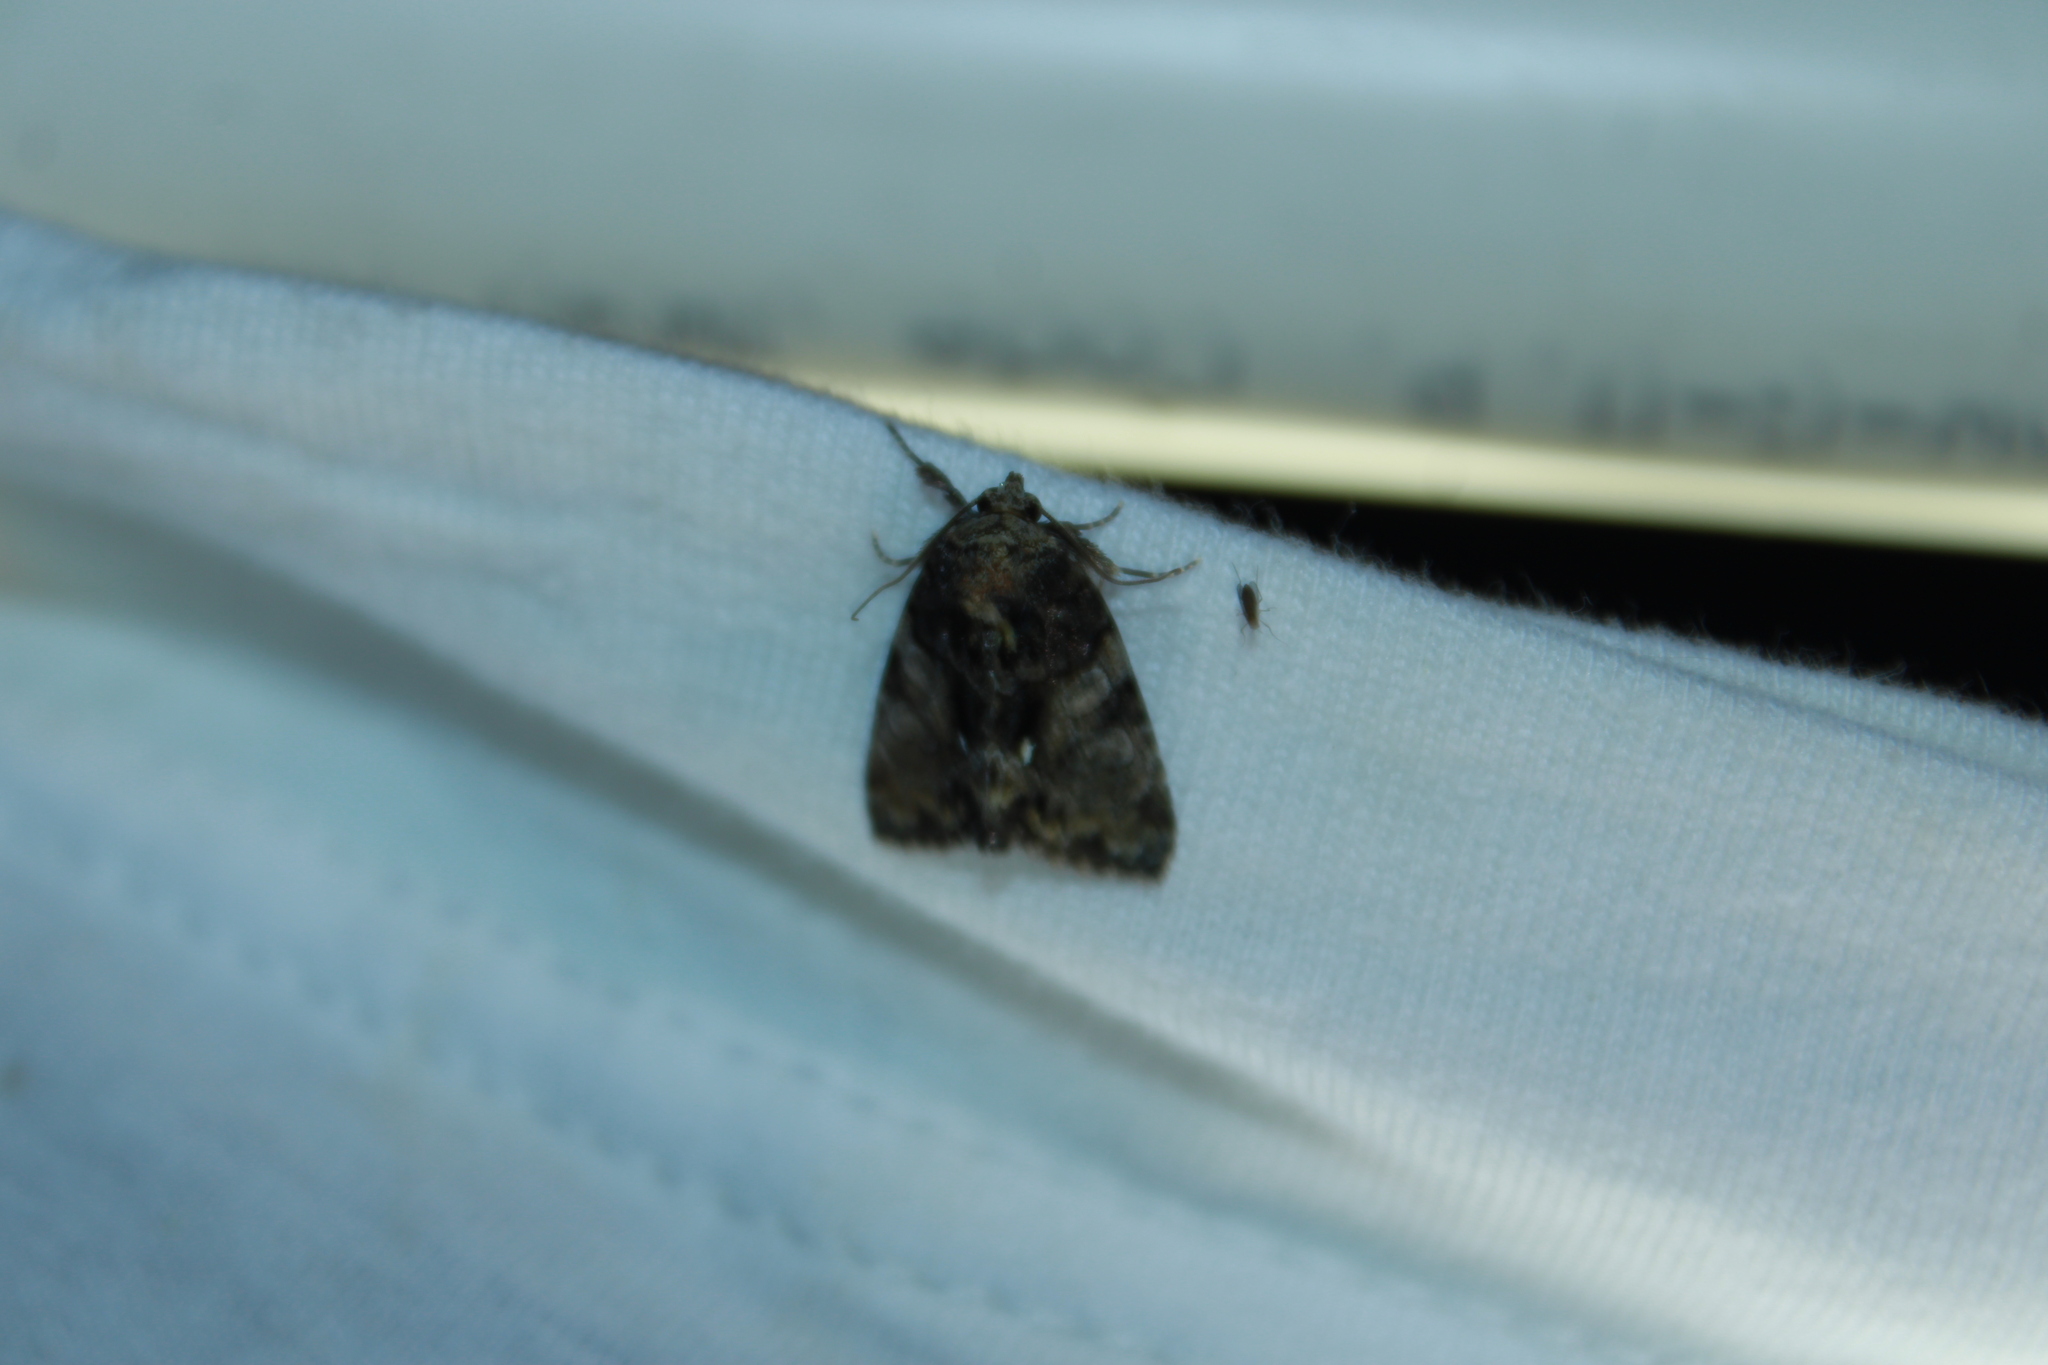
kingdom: Animalia
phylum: Arthropoda
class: Insecta
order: Lepidoptera
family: Noctuidae
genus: Chytonix
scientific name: Chytonix palliatricula
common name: Cloaked marvel
